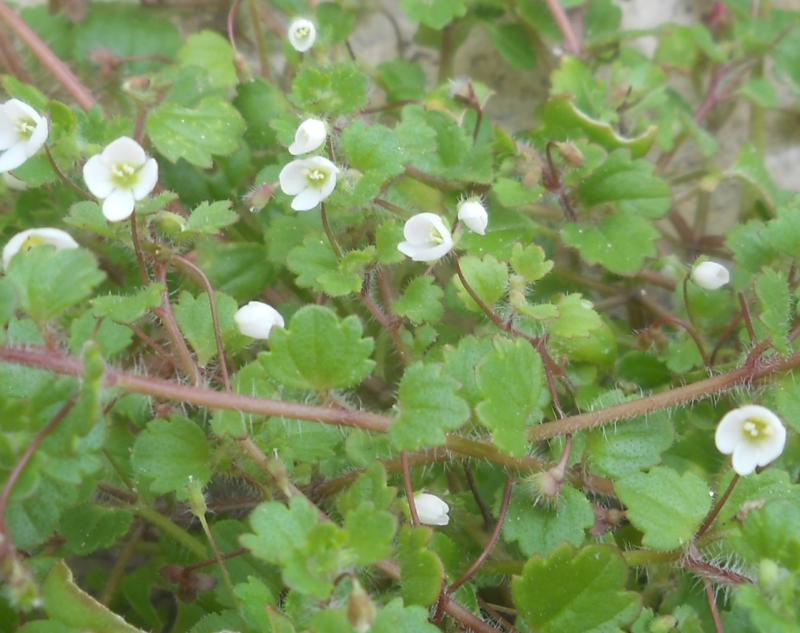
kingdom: Plantae
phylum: Tracheophyta
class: Magnoliopsida
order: Lamiales
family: Plantaginaceae
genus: Veronica
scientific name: Veronica cymbalaria
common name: Pale speedwell
